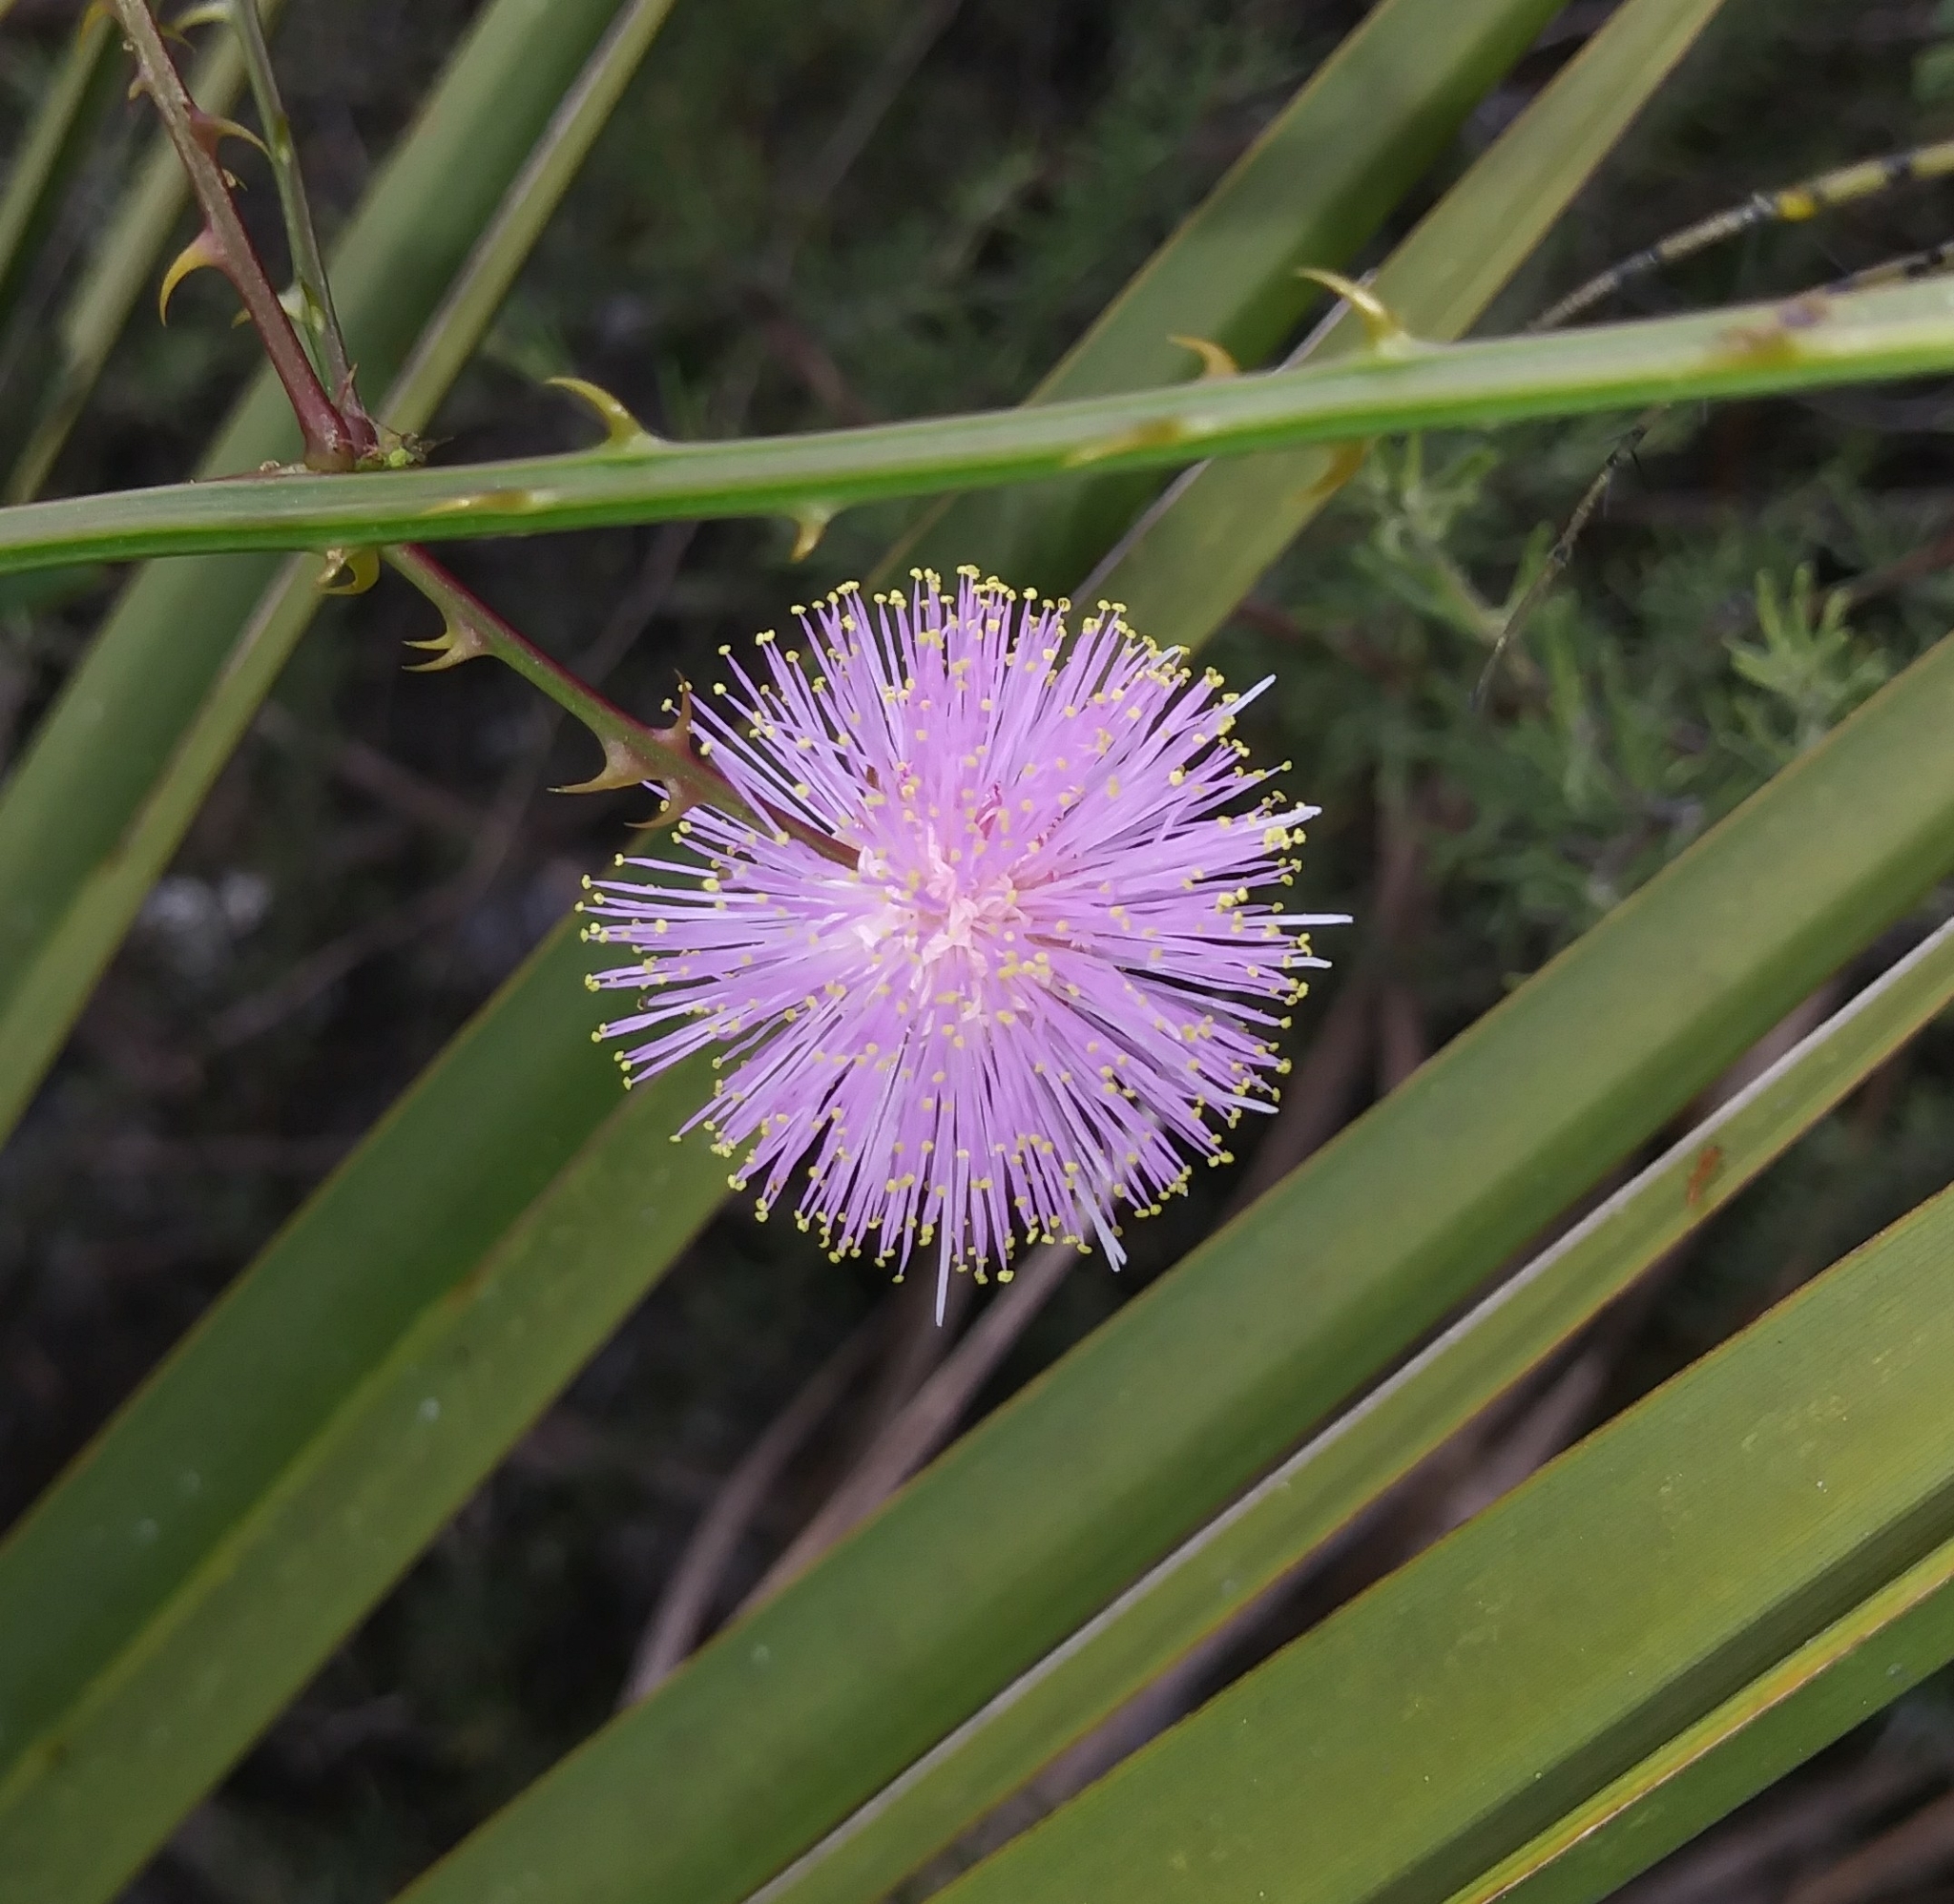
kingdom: Plantae
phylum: Tracheophyta
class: Magnoliopsida
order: Fabales
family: Fabaceae
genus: Mimosa
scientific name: Mimosa quadrivalvis
